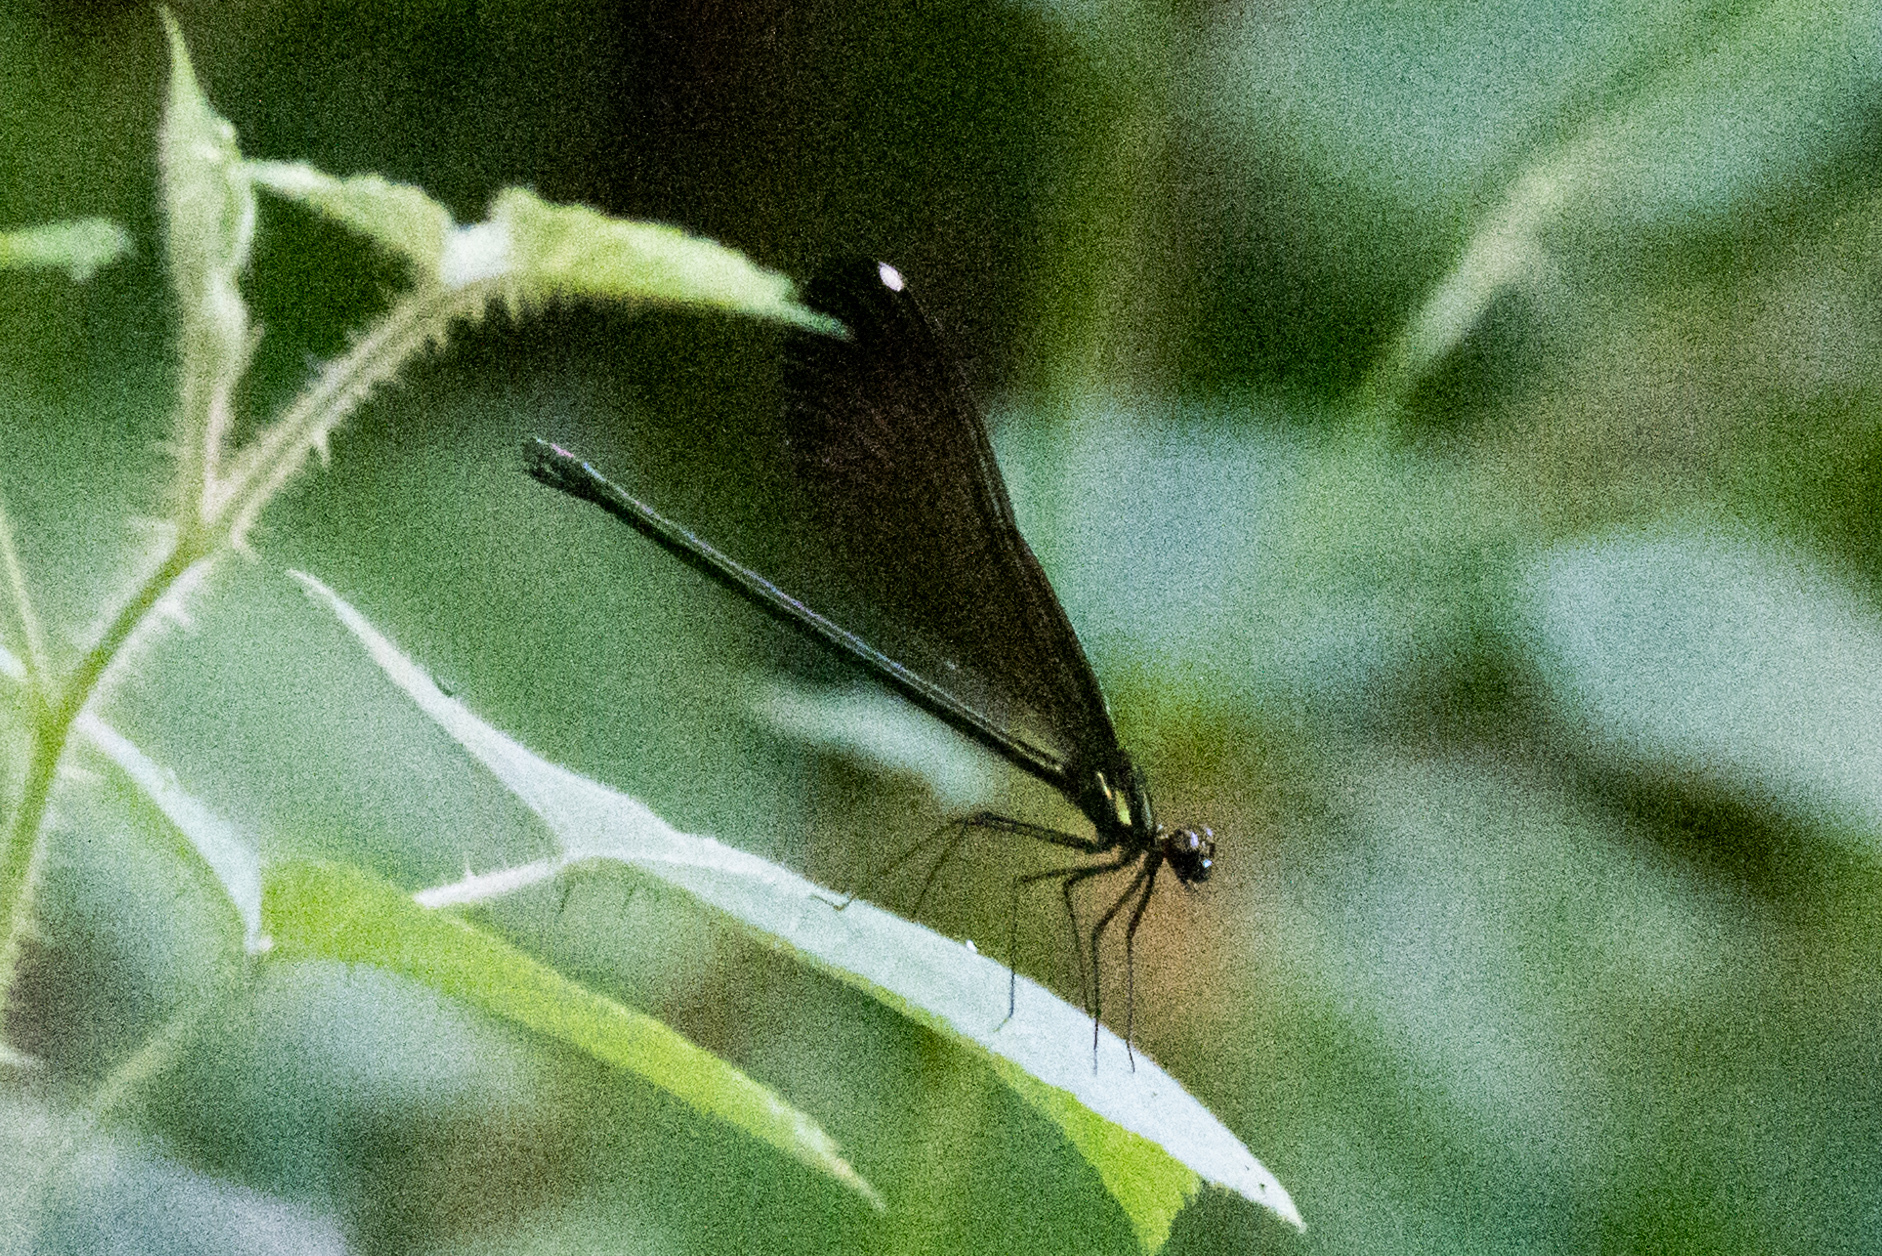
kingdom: Animalia
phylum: Arthropoda
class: Insecta
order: Odonata
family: Calopterygidae
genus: Calopteryx
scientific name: Calopteryx maculata
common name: Ebony jewelwing
